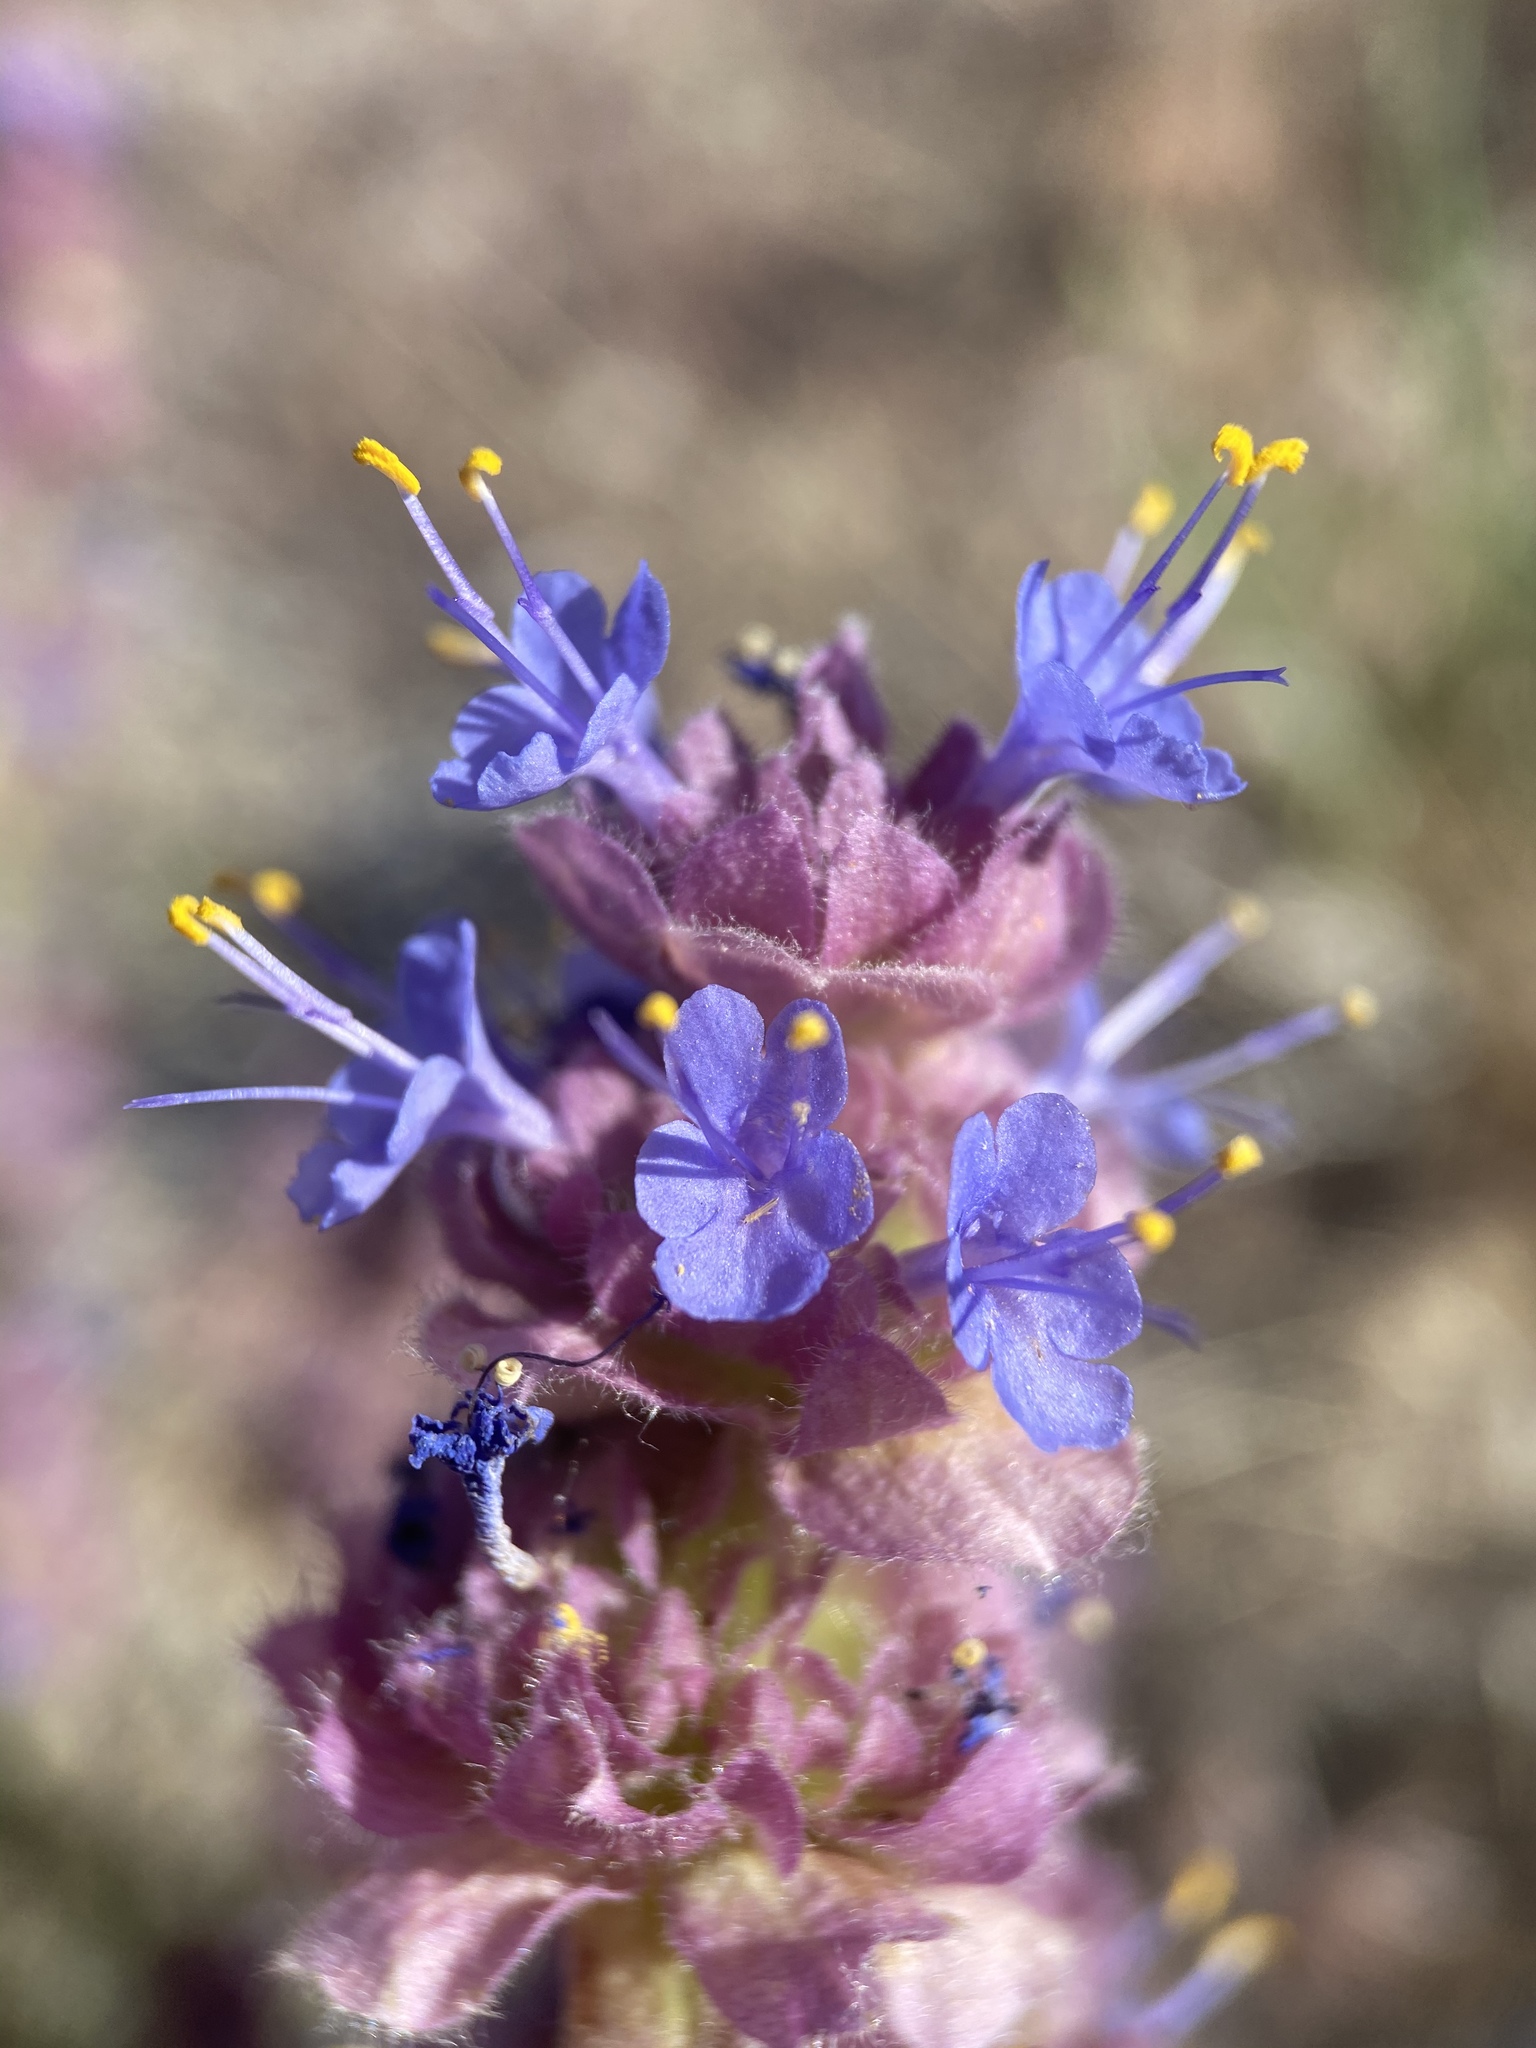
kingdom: Plantae
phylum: Tracheophyta
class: Magnoliopsida
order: Lamiales
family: Lamiaceae
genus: Salvia
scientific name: Salvia dorrii
